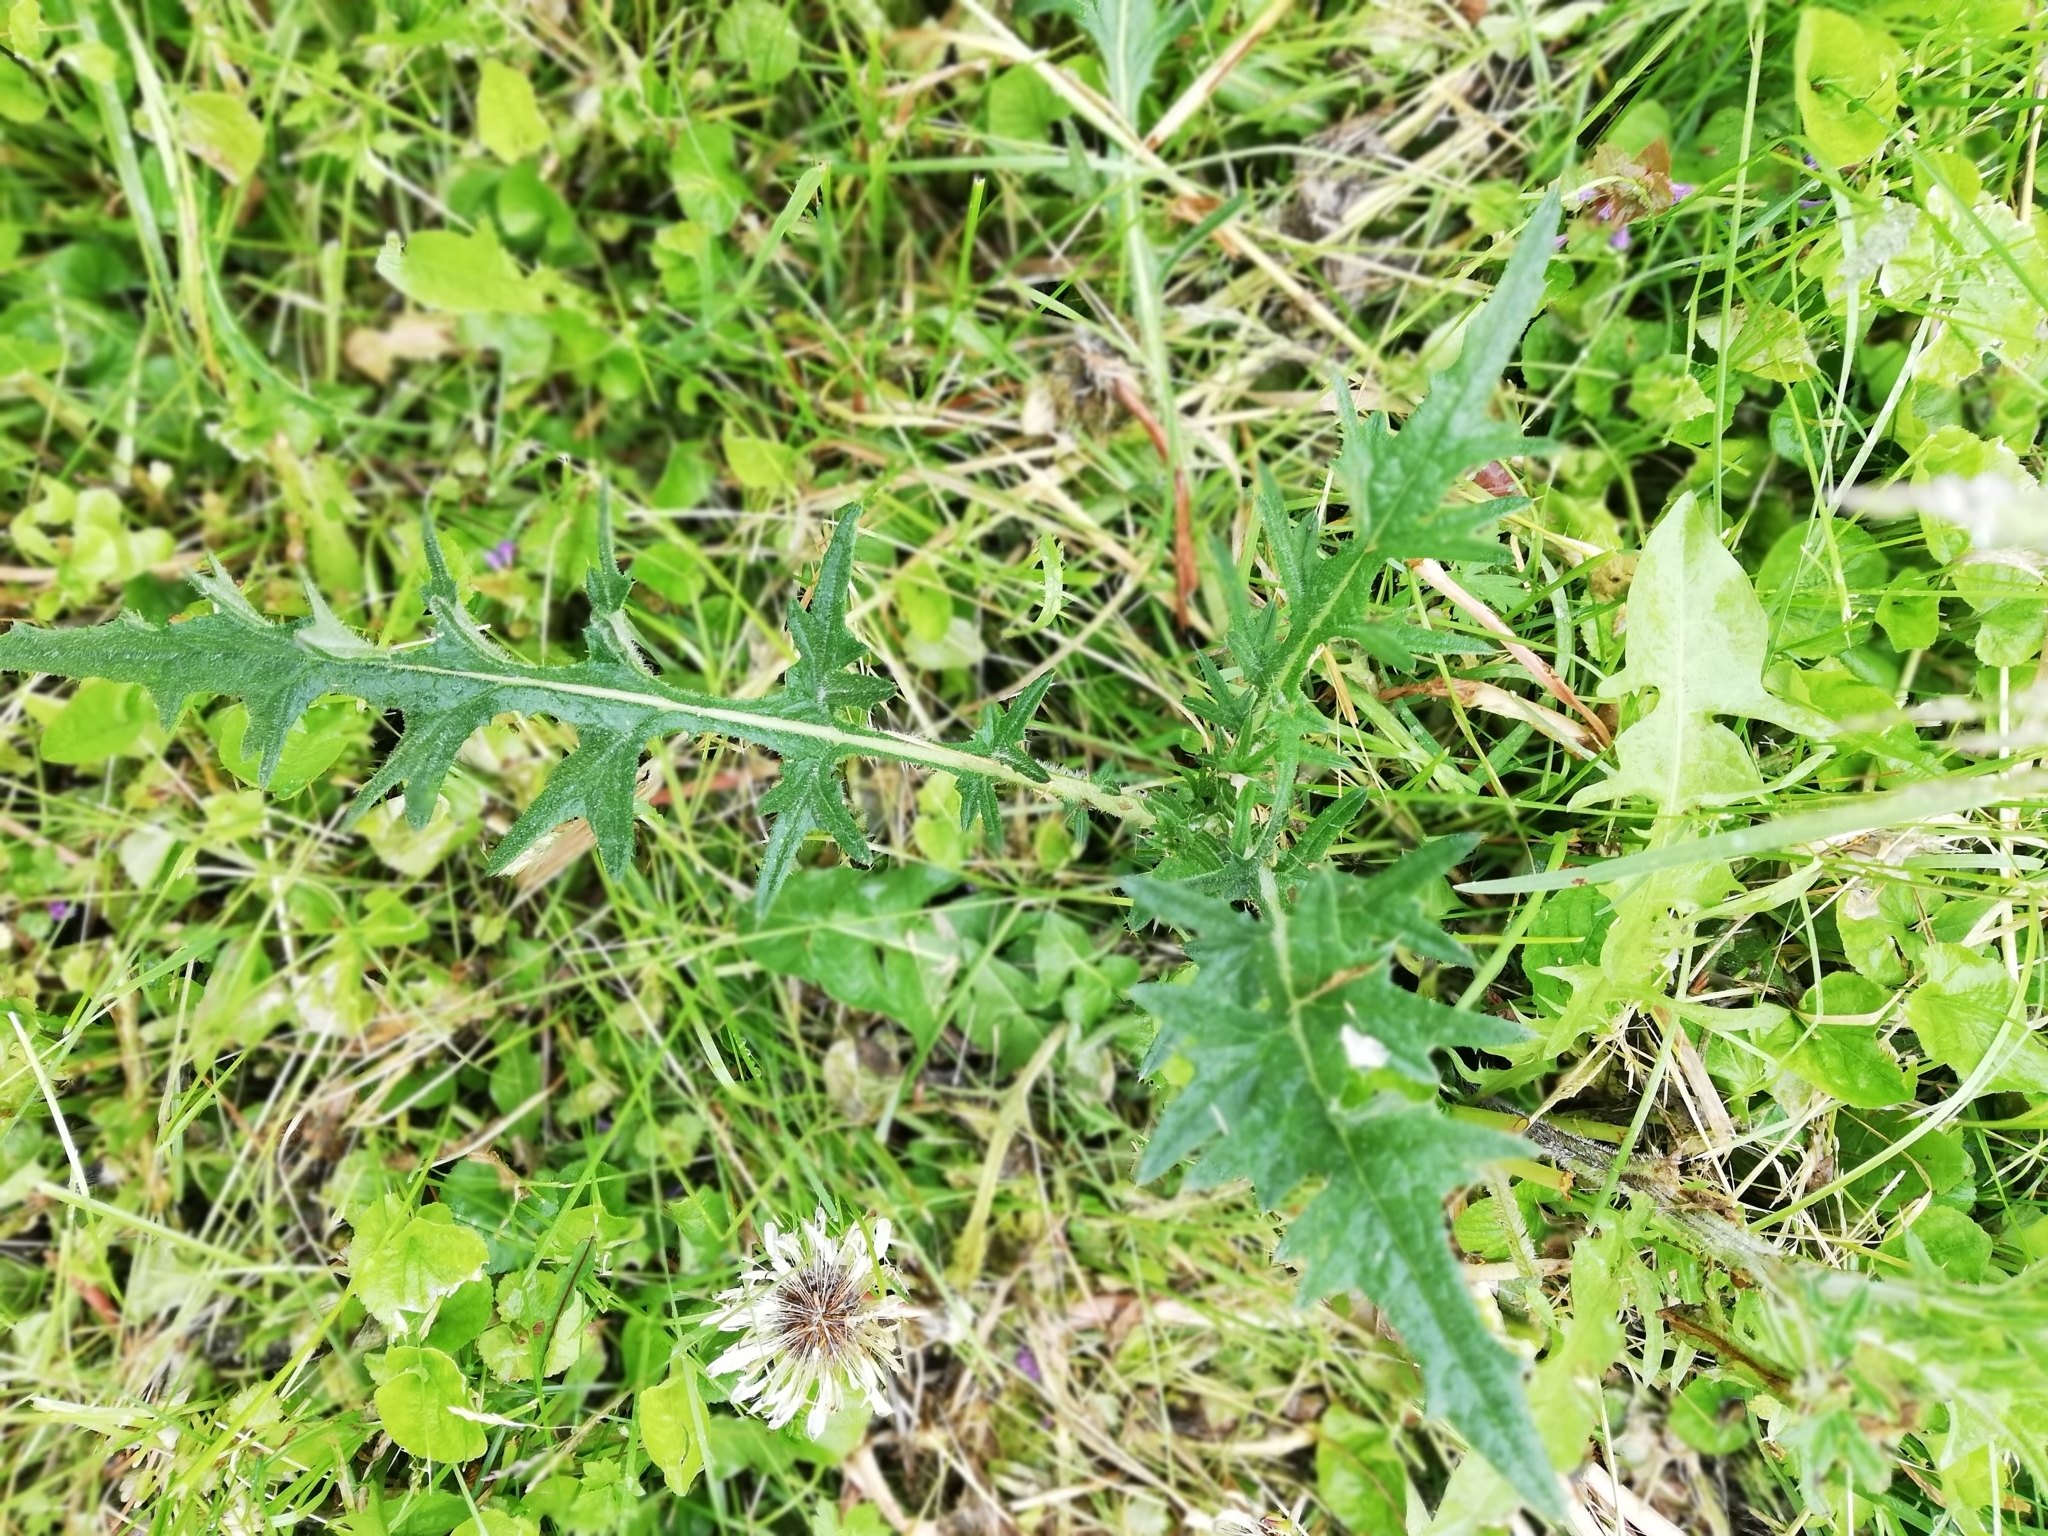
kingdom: Plantae
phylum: Tracheophyta
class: Magnoliopsida
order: Asterales
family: Asteraceae
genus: Cirsium
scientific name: Cirsium vulgare
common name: Bull thistle
